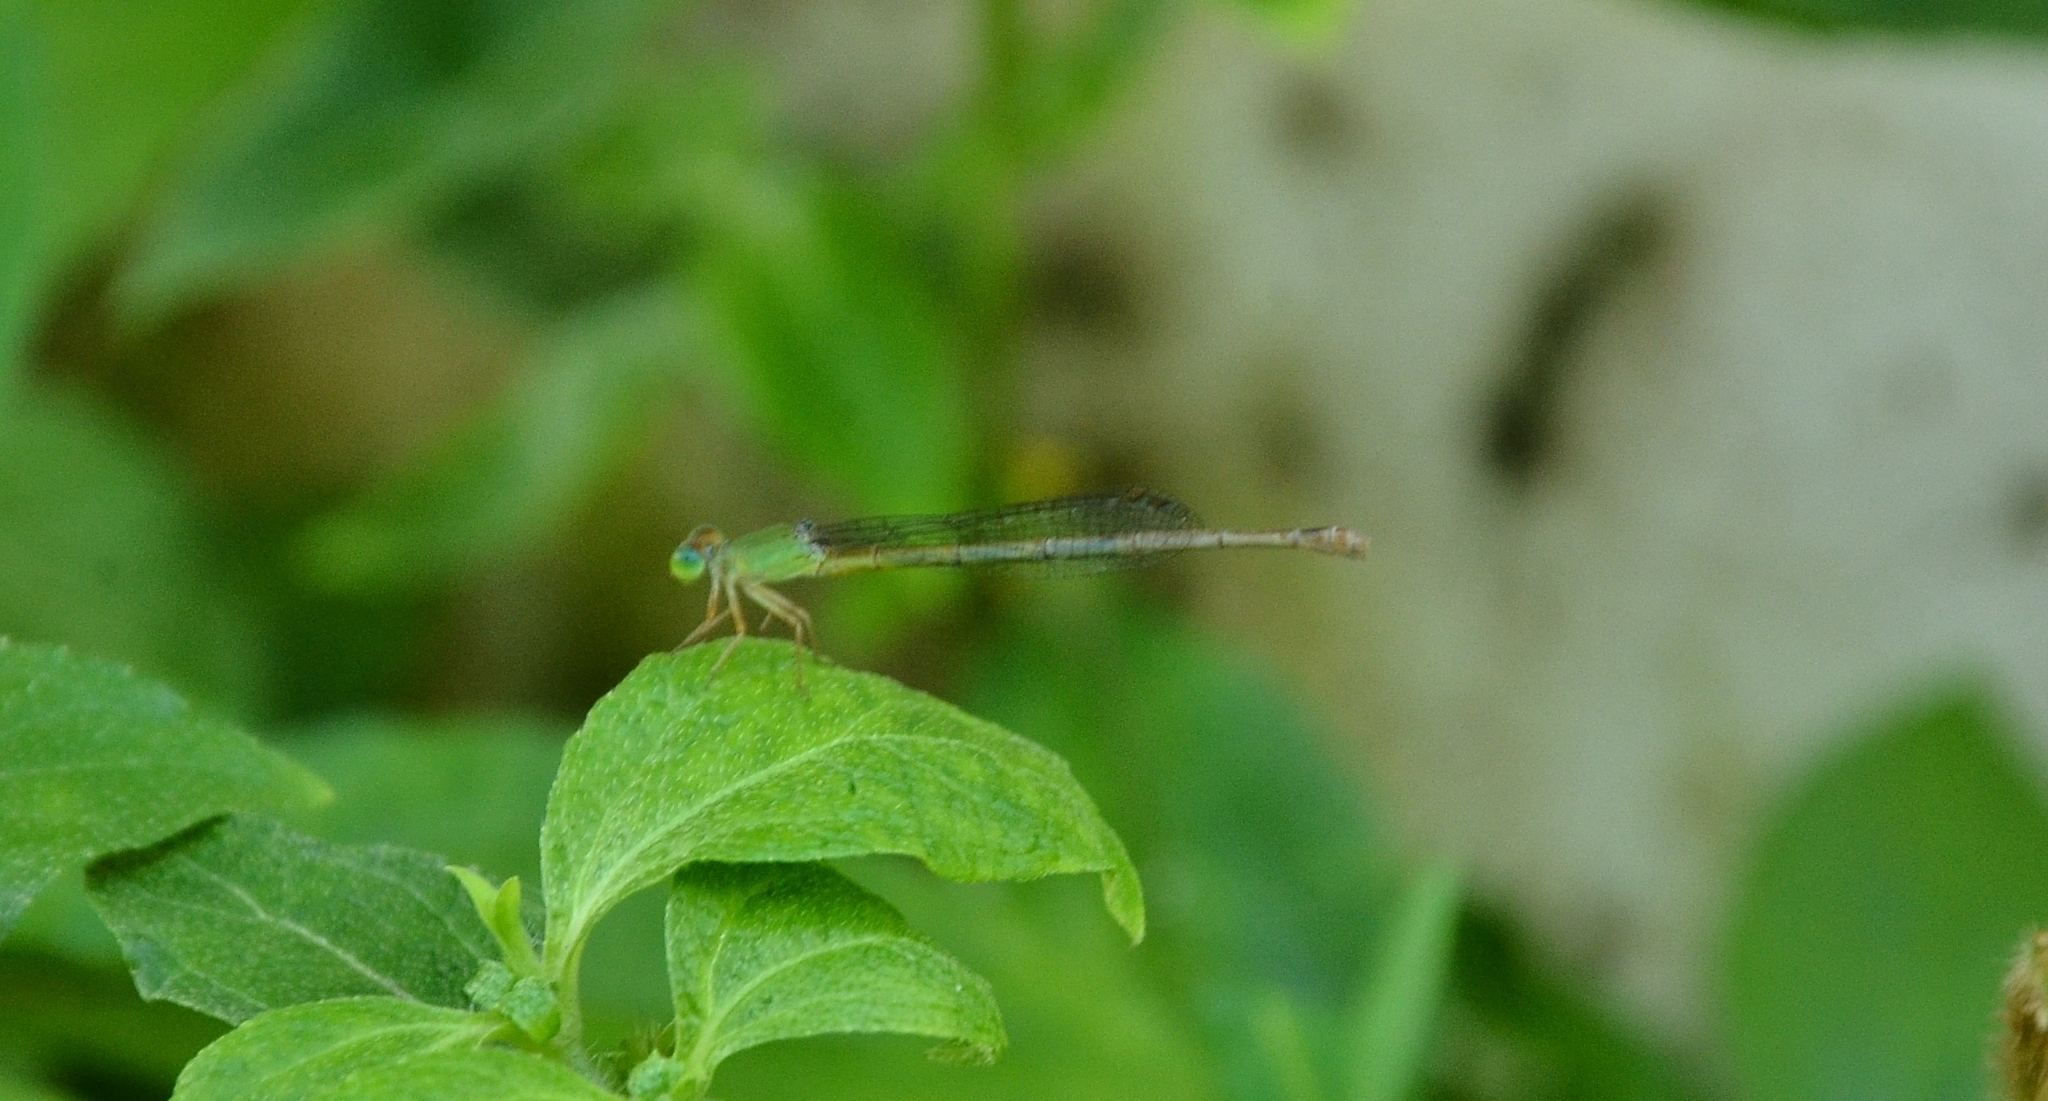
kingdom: Animalia
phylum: Arthropoda
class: Insecta
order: Odonata
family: Coenagrionidae
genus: Ceriagrion
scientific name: Ceriagrion coromandelianum
